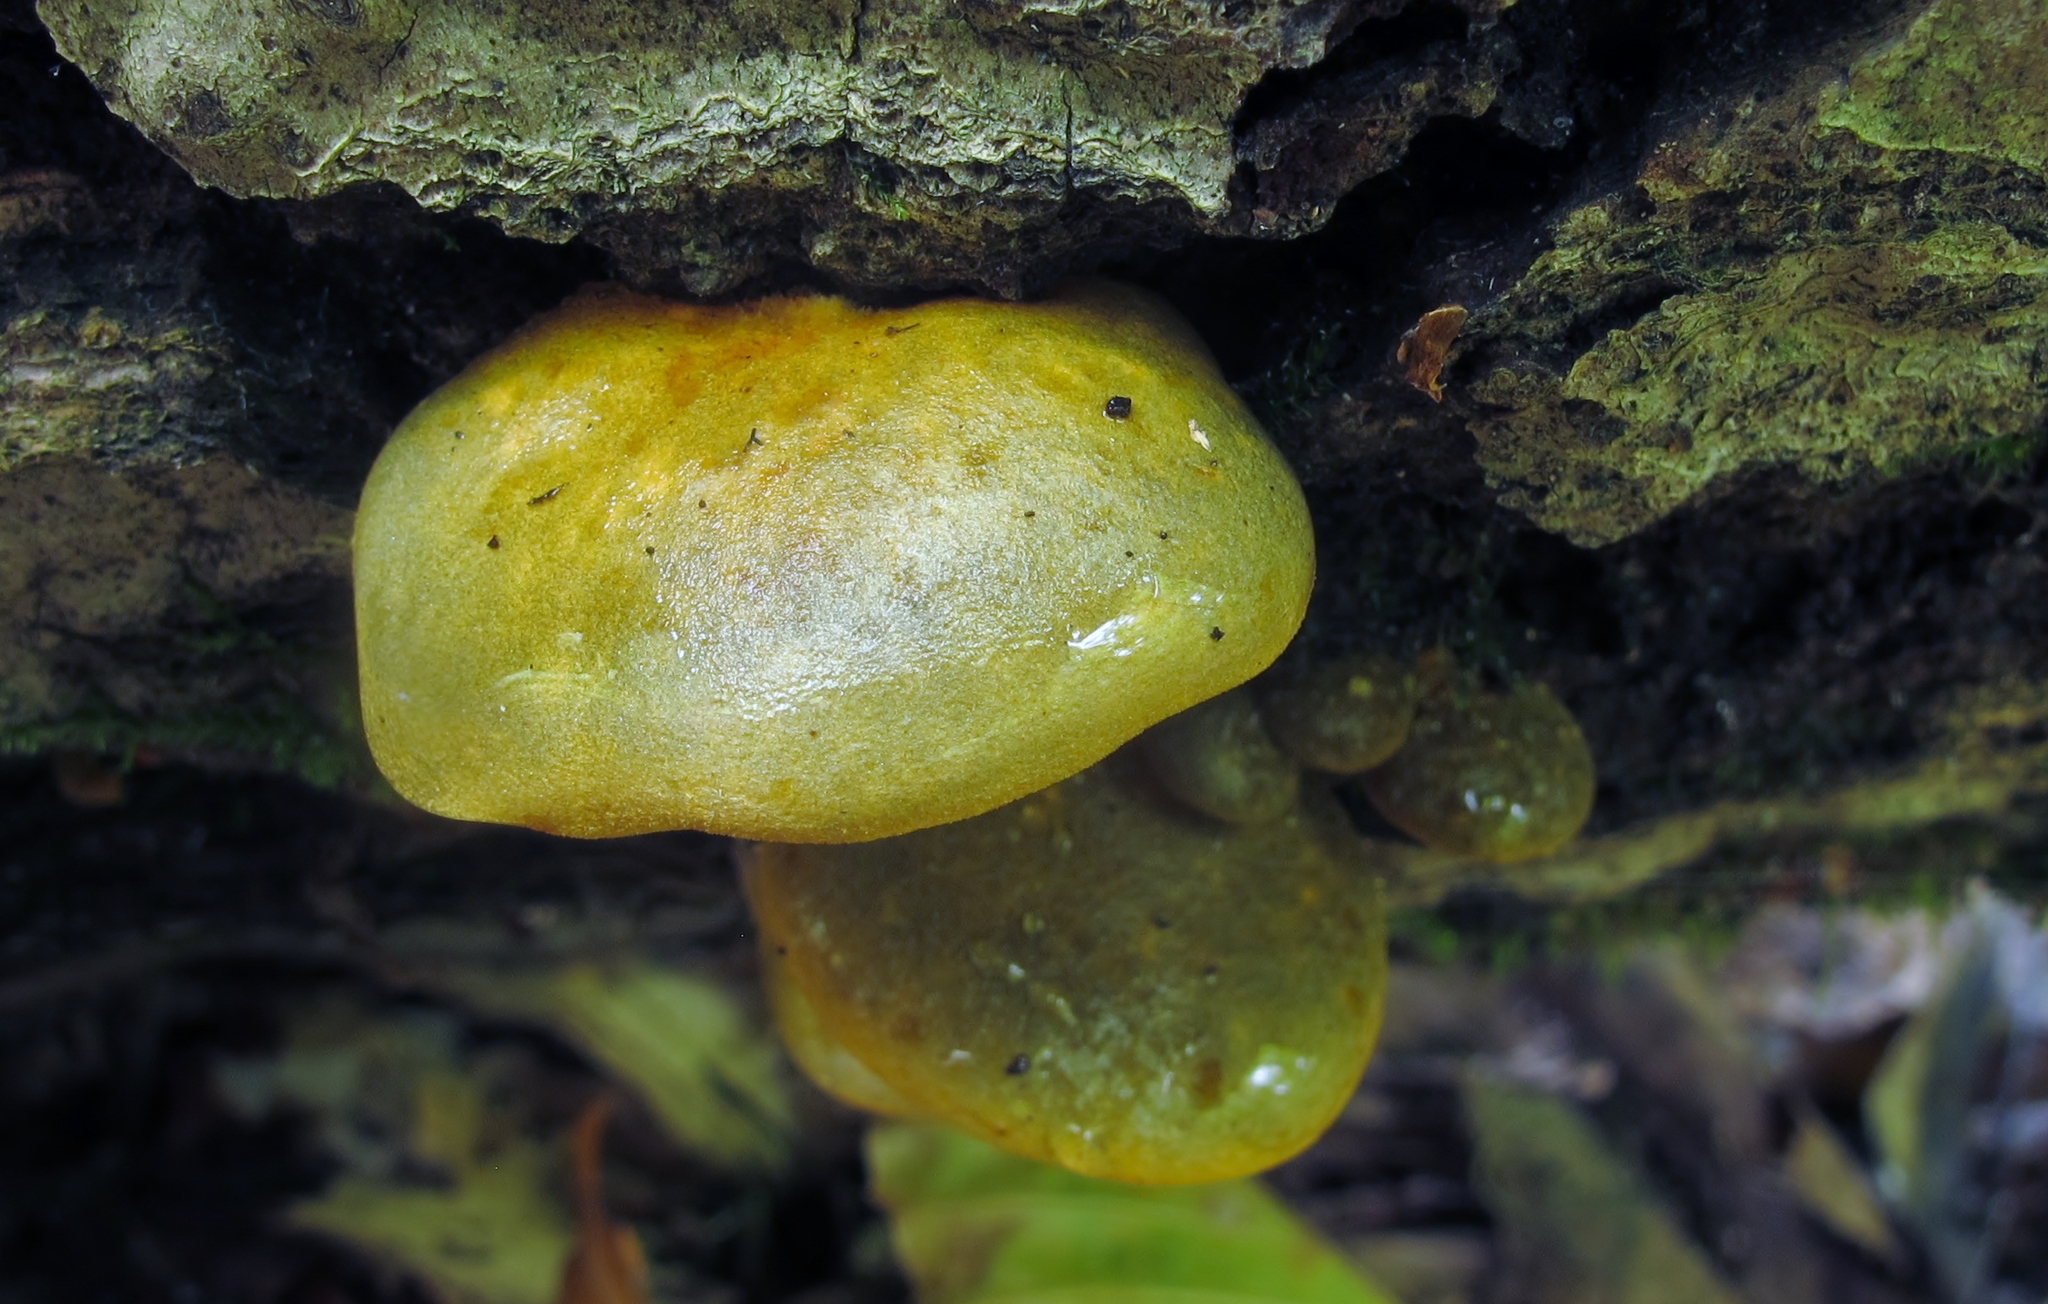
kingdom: Fungi
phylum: Basidiomycota
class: Agaricomycetes
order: Agaricales
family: Sarcomyxaceae
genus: Sarcomyxa
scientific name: Sarcomyxa serotina
